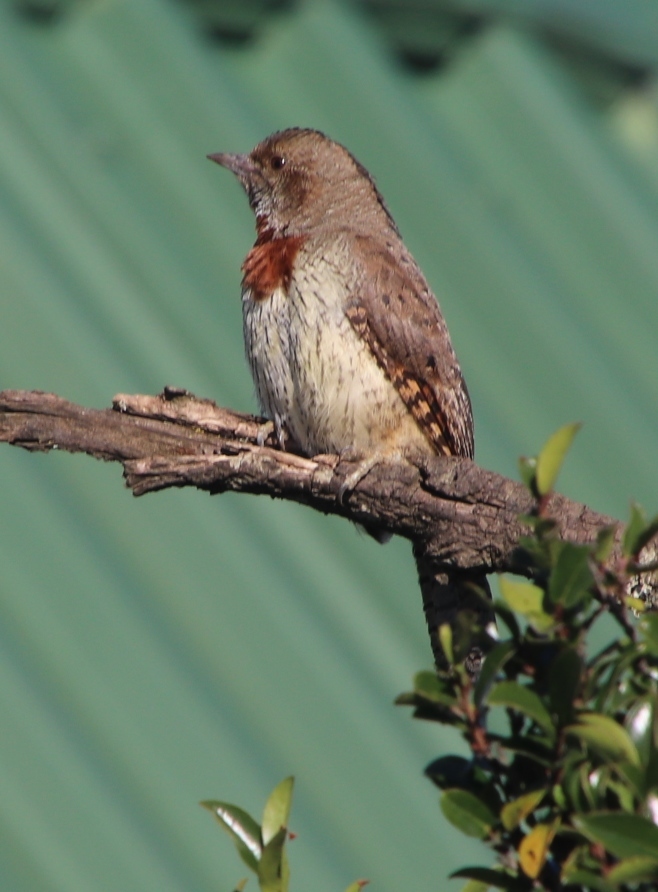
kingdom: Animalia
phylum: Chordata
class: Aves
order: Piciformes
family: Picidae
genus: Jynx
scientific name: Jynx ruficollis
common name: Red-throated wryneck
